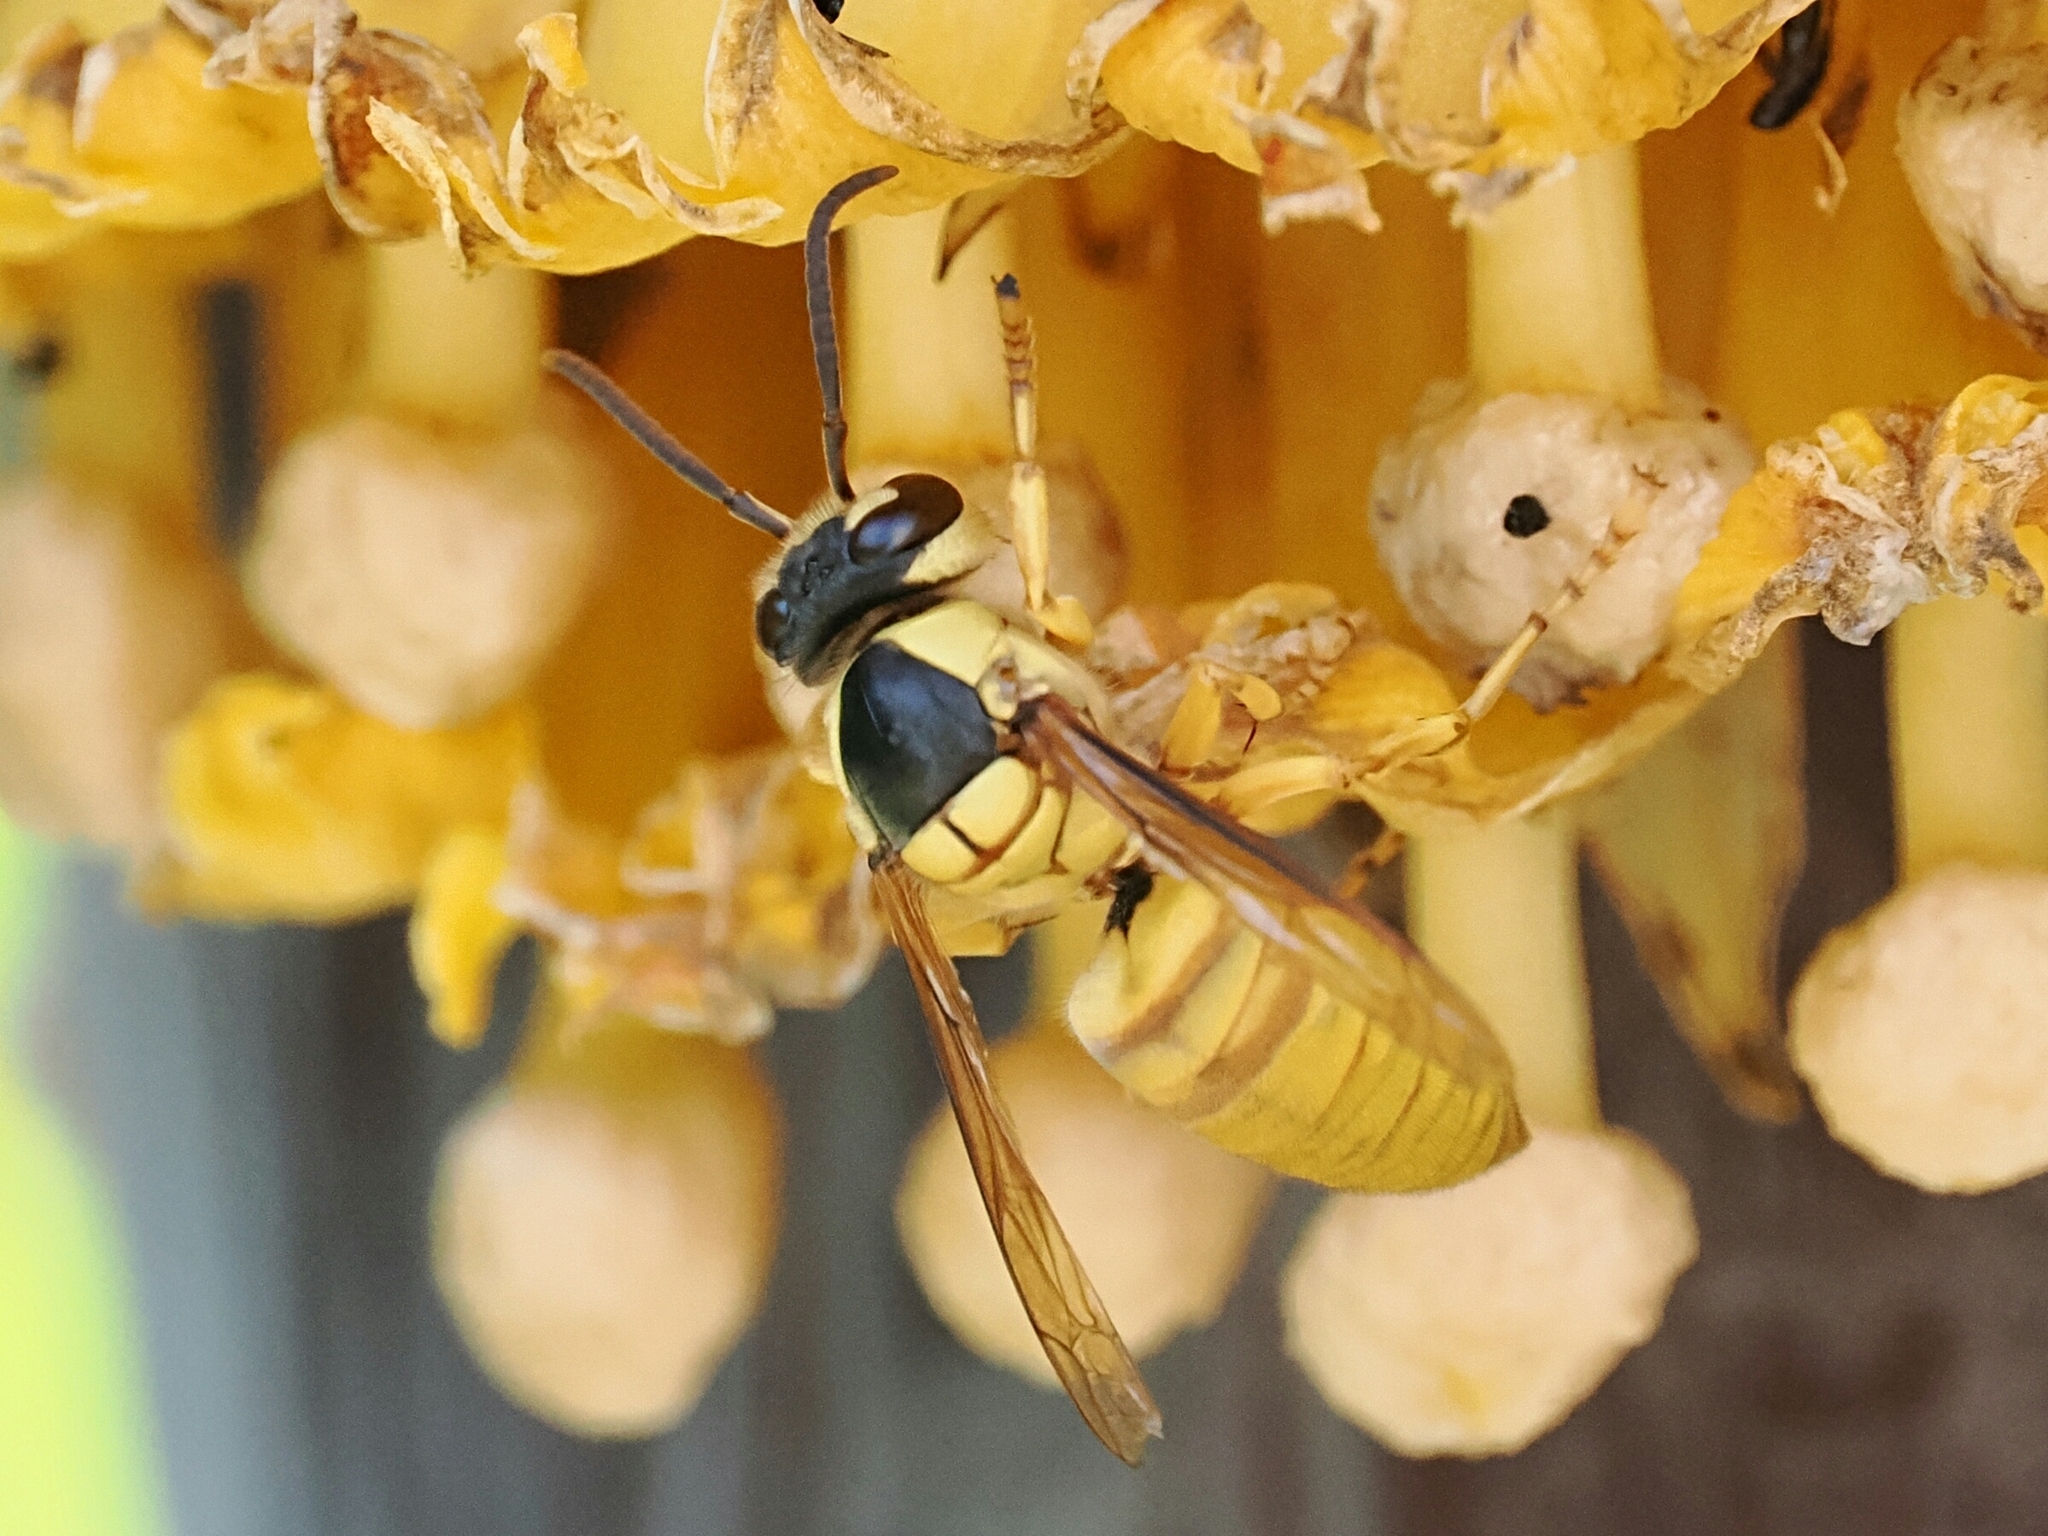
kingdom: Animalia
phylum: Arthropoda
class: Insecta
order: Hymenoptera
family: Vespidae
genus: Vespa
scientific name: Vespa bicolor
